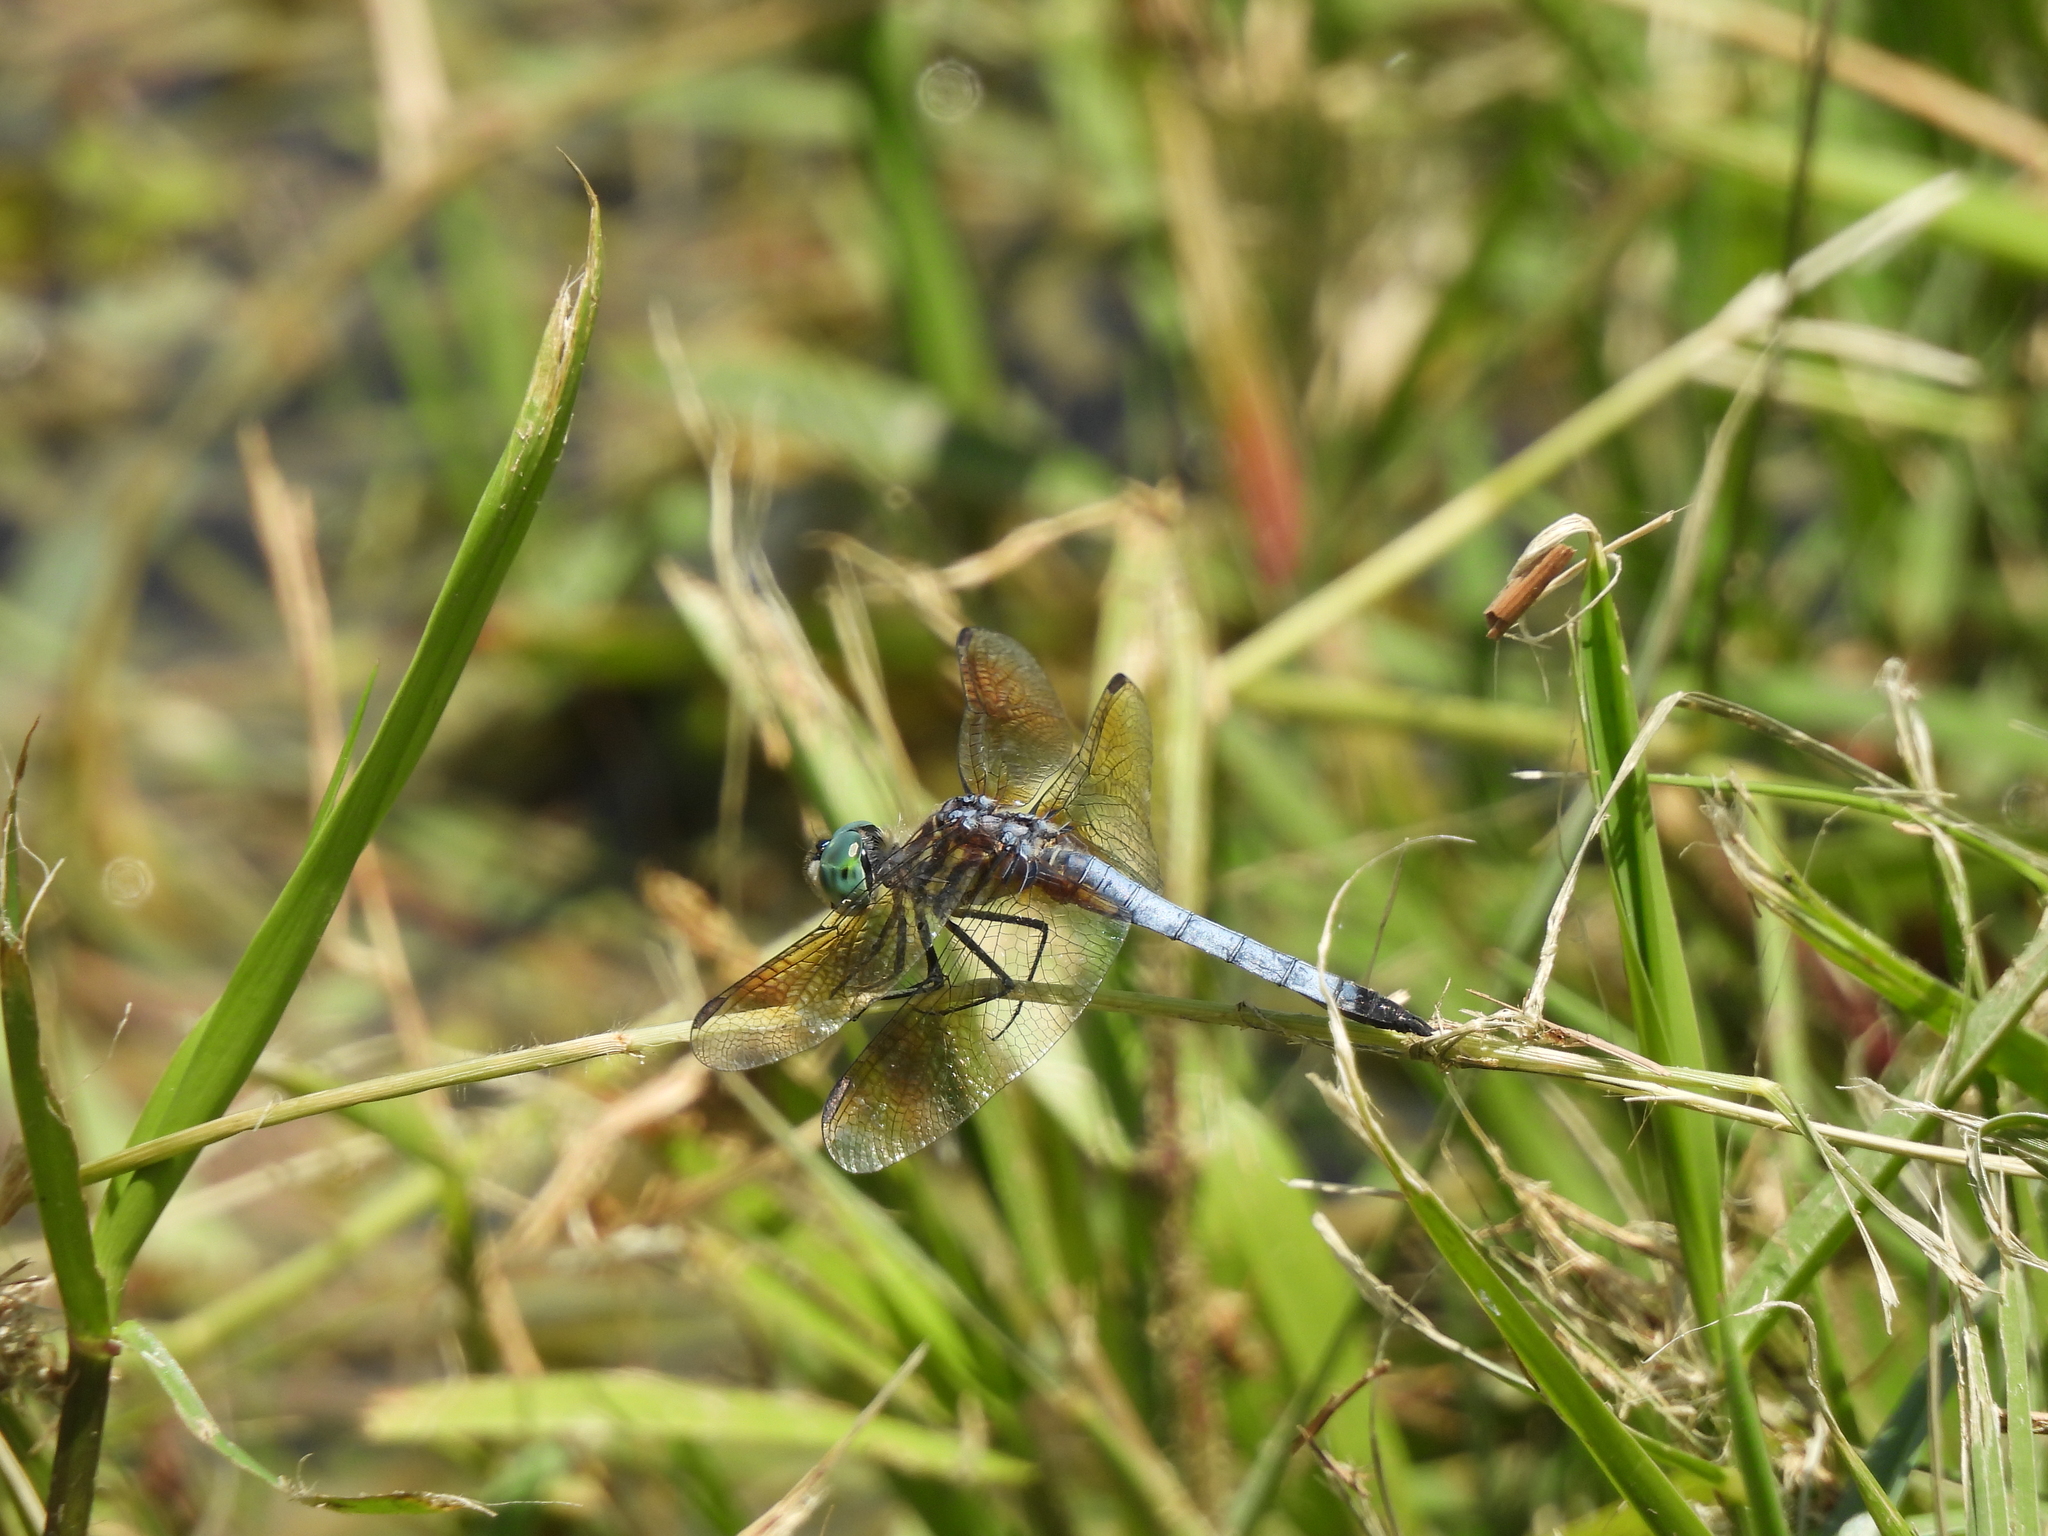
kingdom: Animalia
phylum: Arthropoda
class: Insecta
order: Odonata
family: Libellulidae
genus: Pachydiplax
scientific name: Pachydiplax longipennis
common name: Blue dasher
